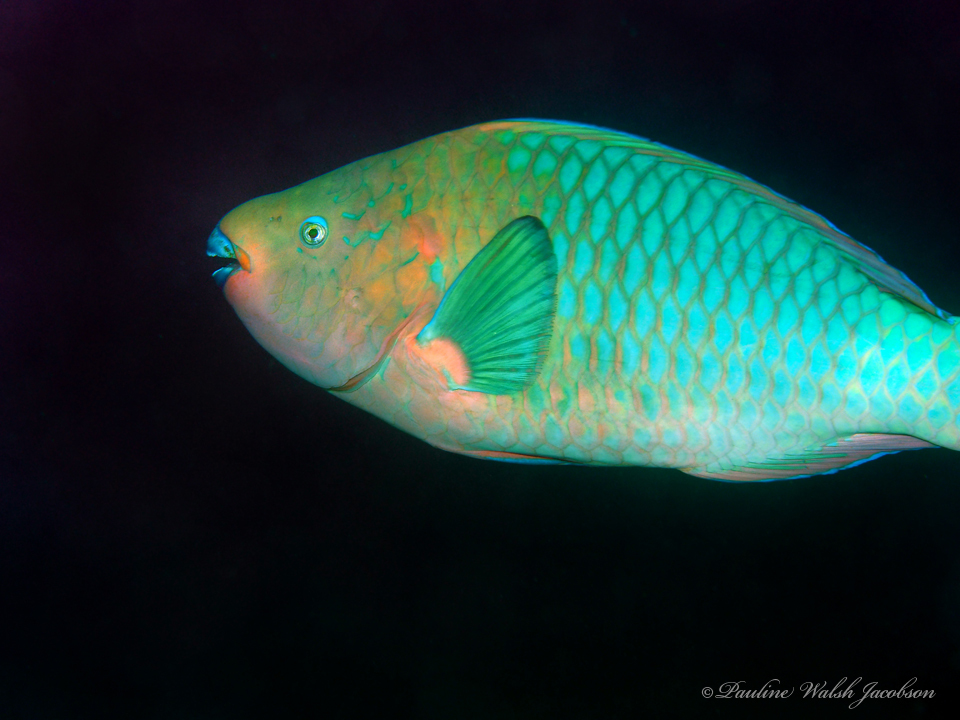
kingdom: Animalia
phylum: Chordata
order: Perciformes
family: Scaridae
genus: Scarus
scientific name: Scarus guacamaia
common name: Rainbow parrotfish
